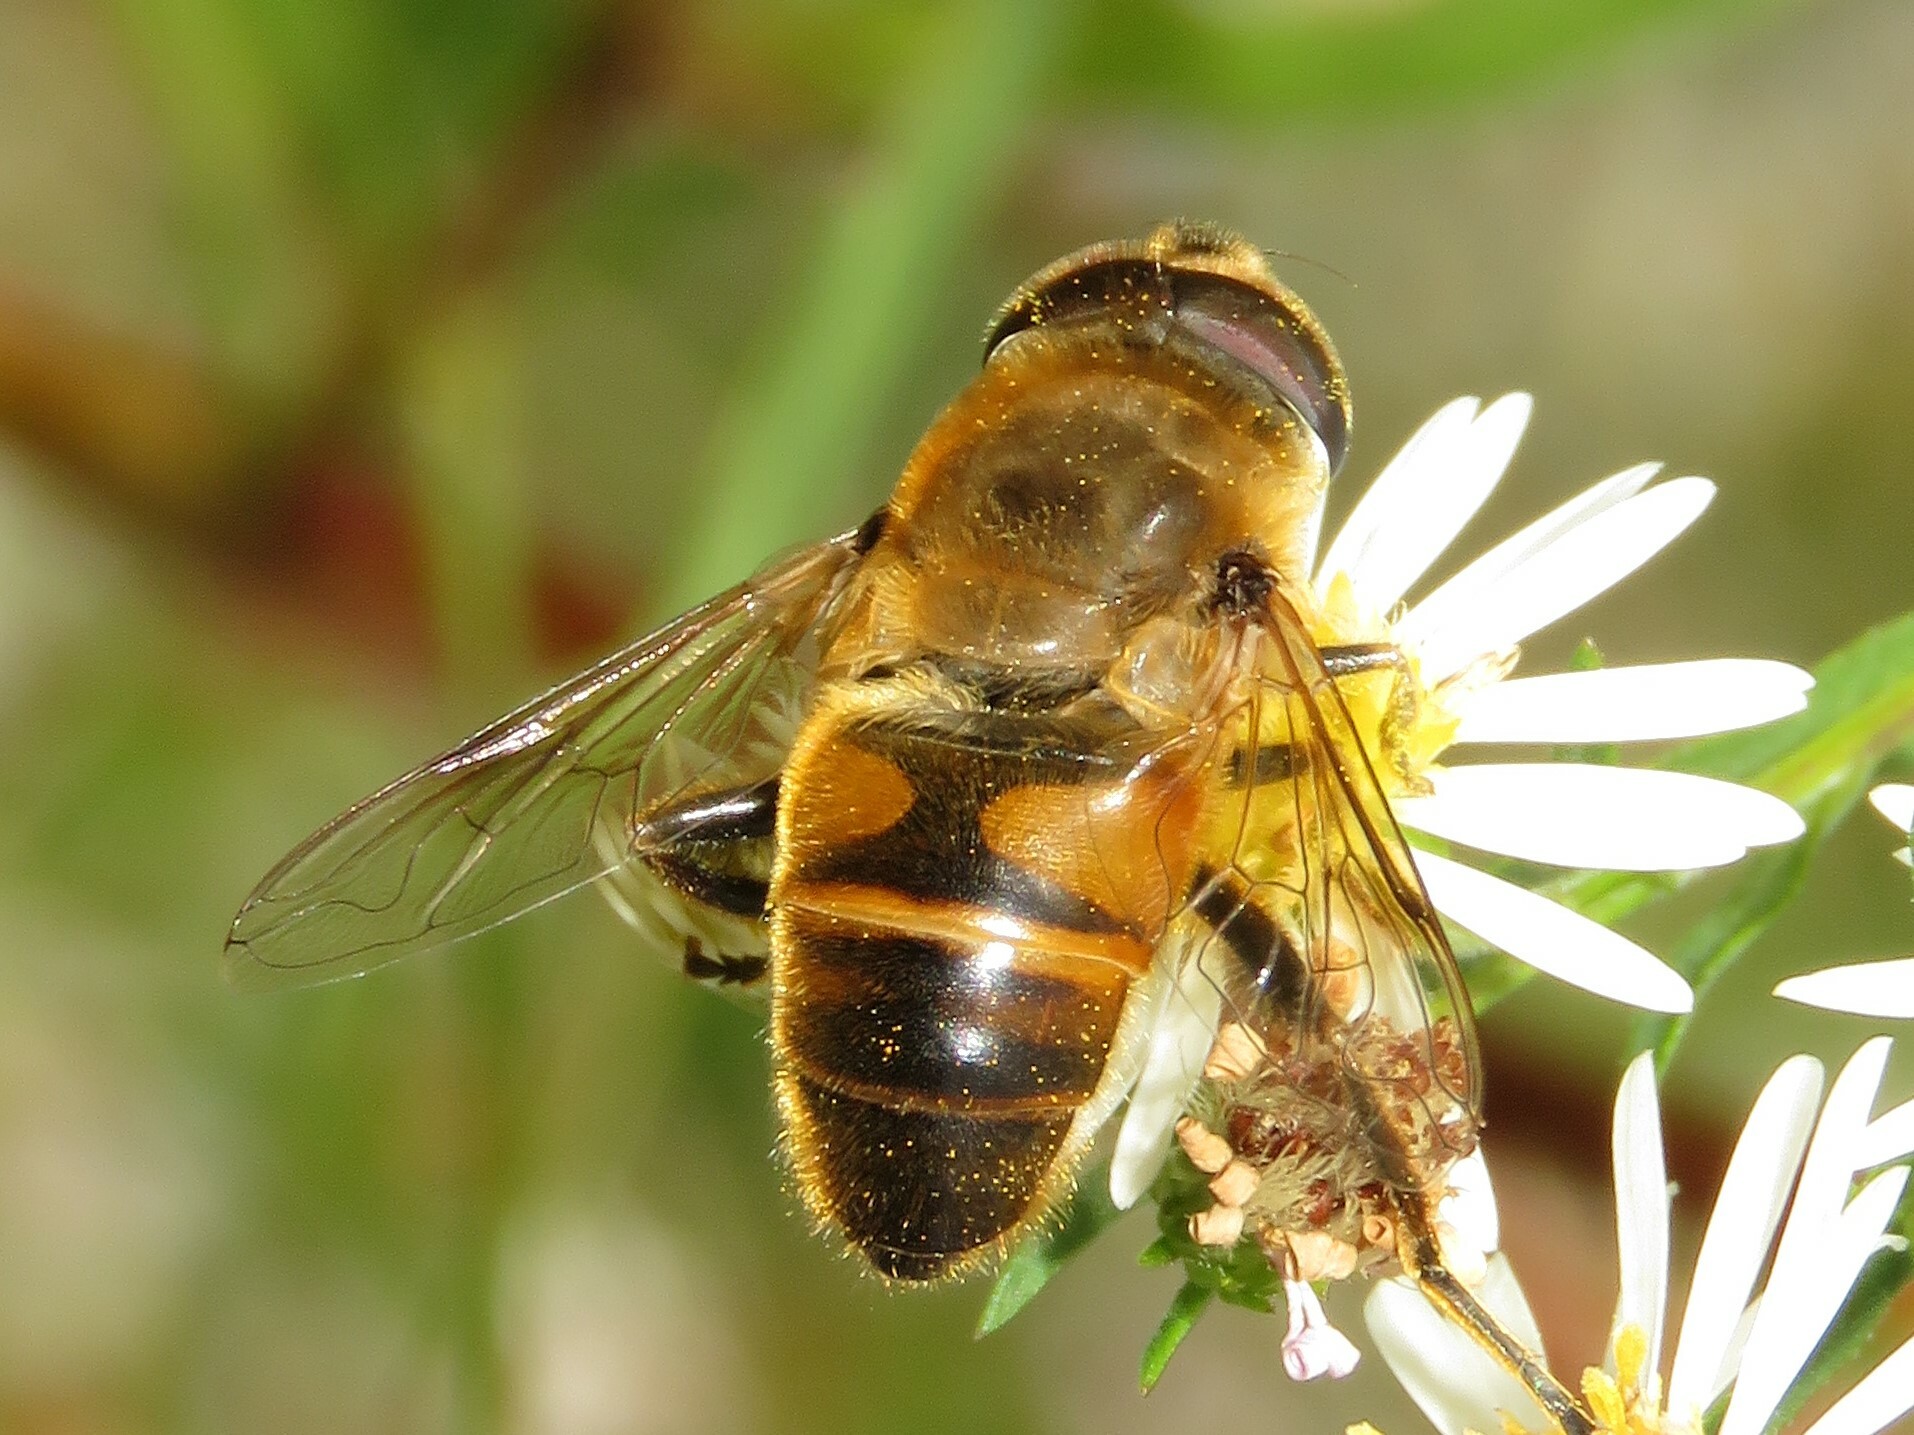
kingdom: Animalia
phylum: Arthropoda
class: Insecta
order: Diptera
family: Syrphidae
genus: Eristalis
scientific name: Eristalis tenax
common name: Drone fly
